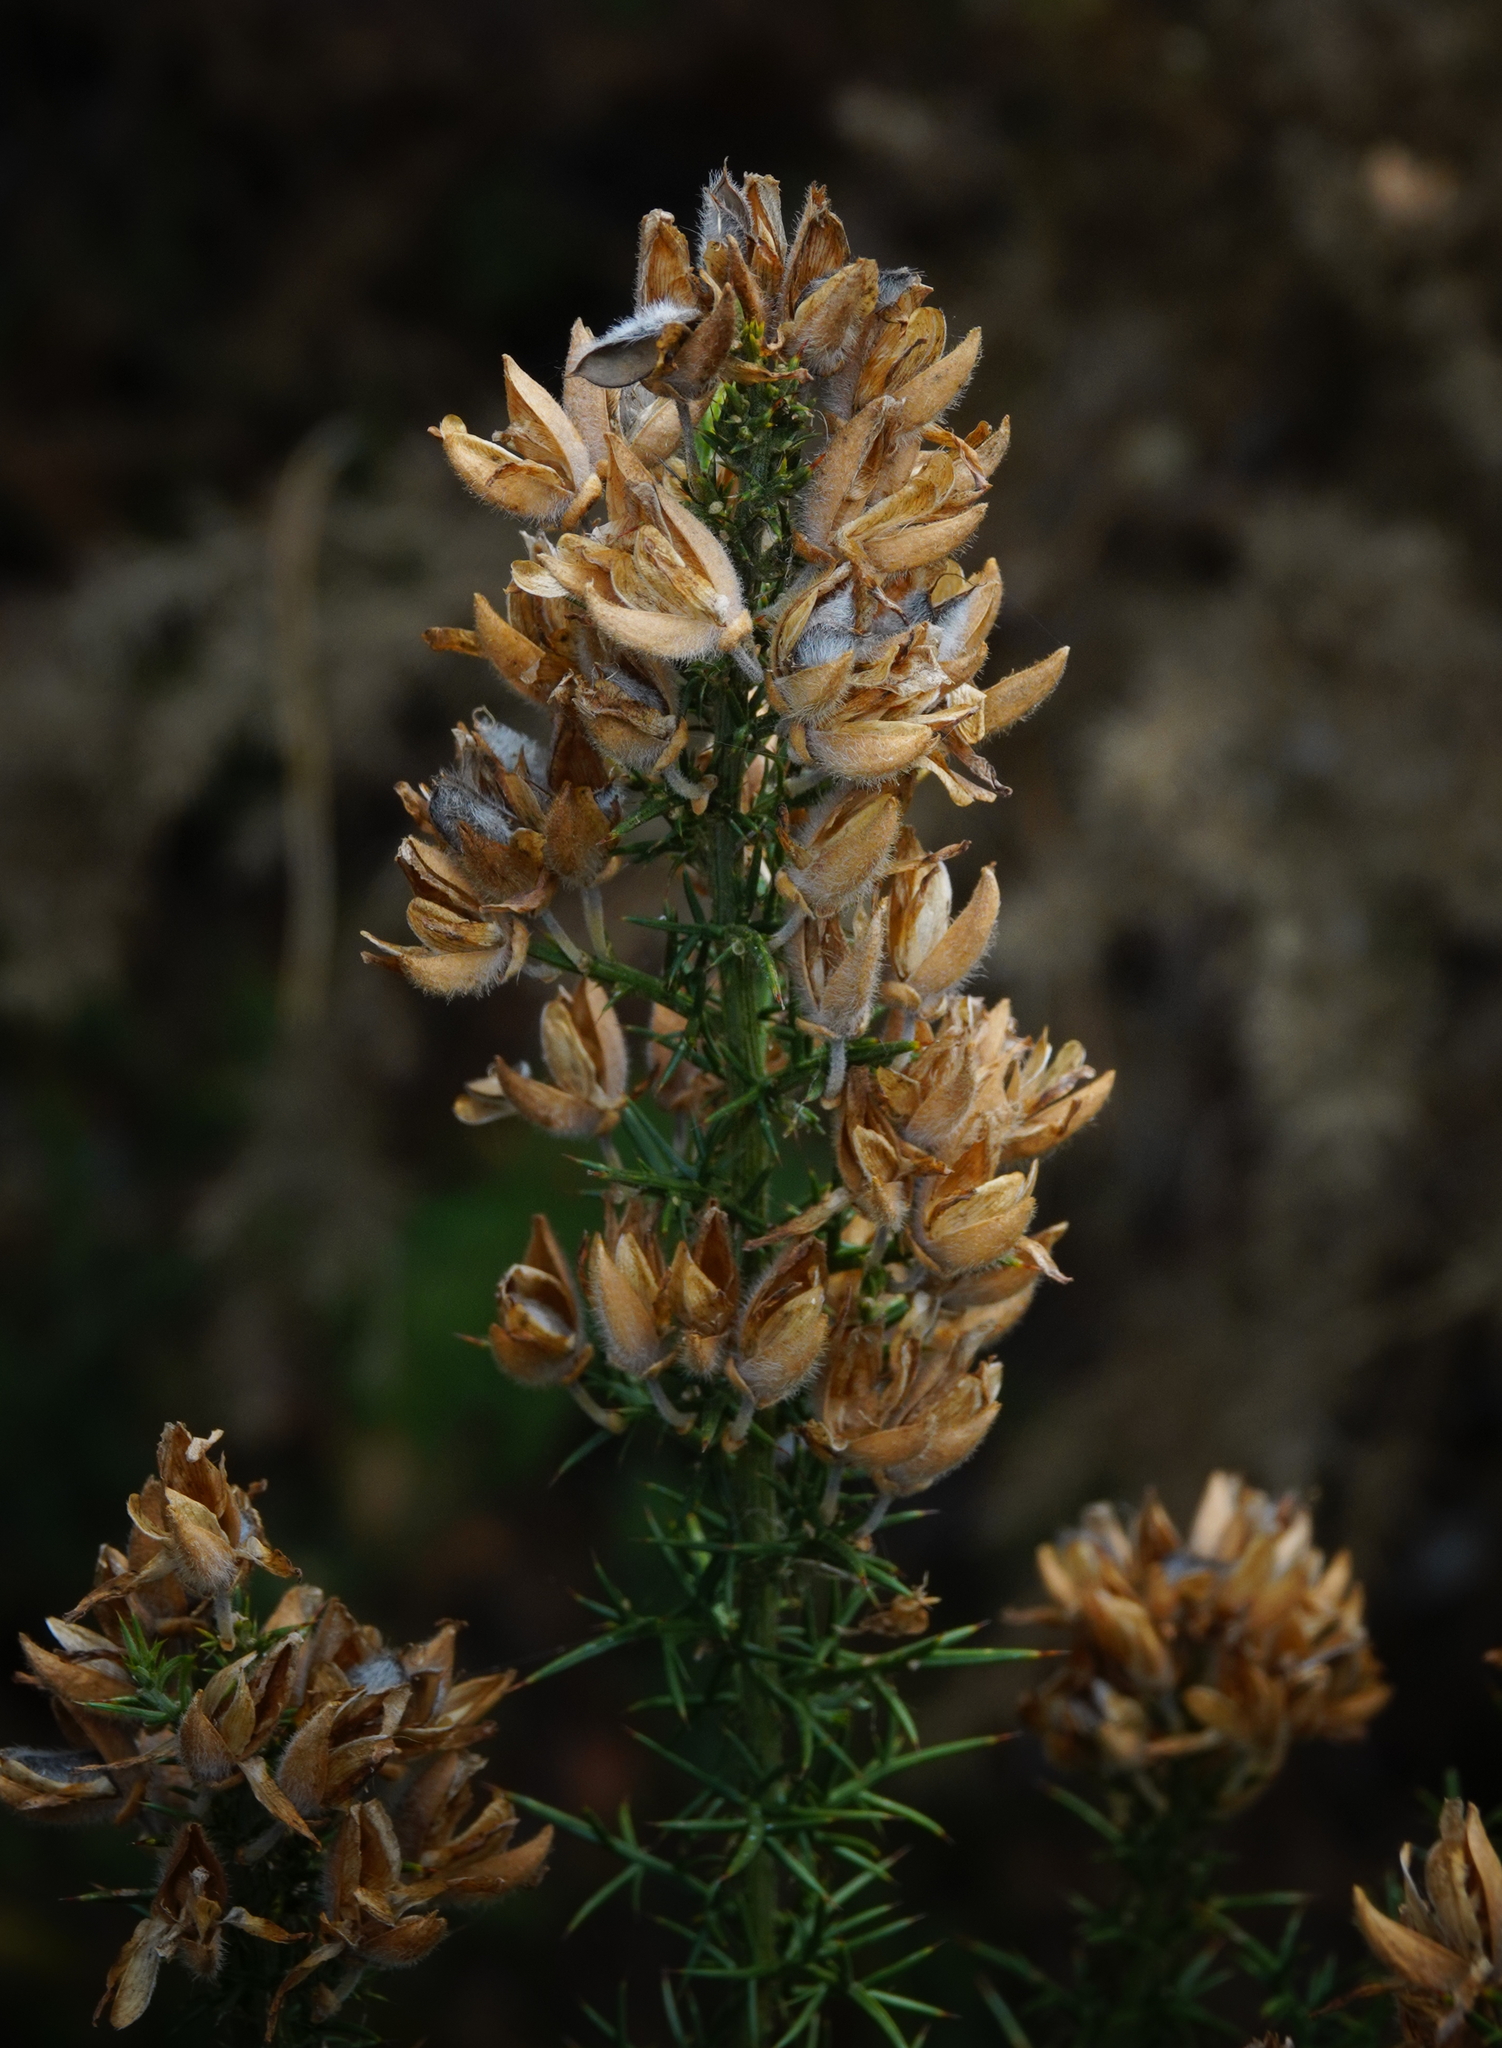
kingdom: Plantae
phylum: Tracheophyta
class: Magnoliopsida
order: Fabales
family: Fabaceae
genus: Ulex
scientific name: Ulex europaeus
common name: Common gorse
